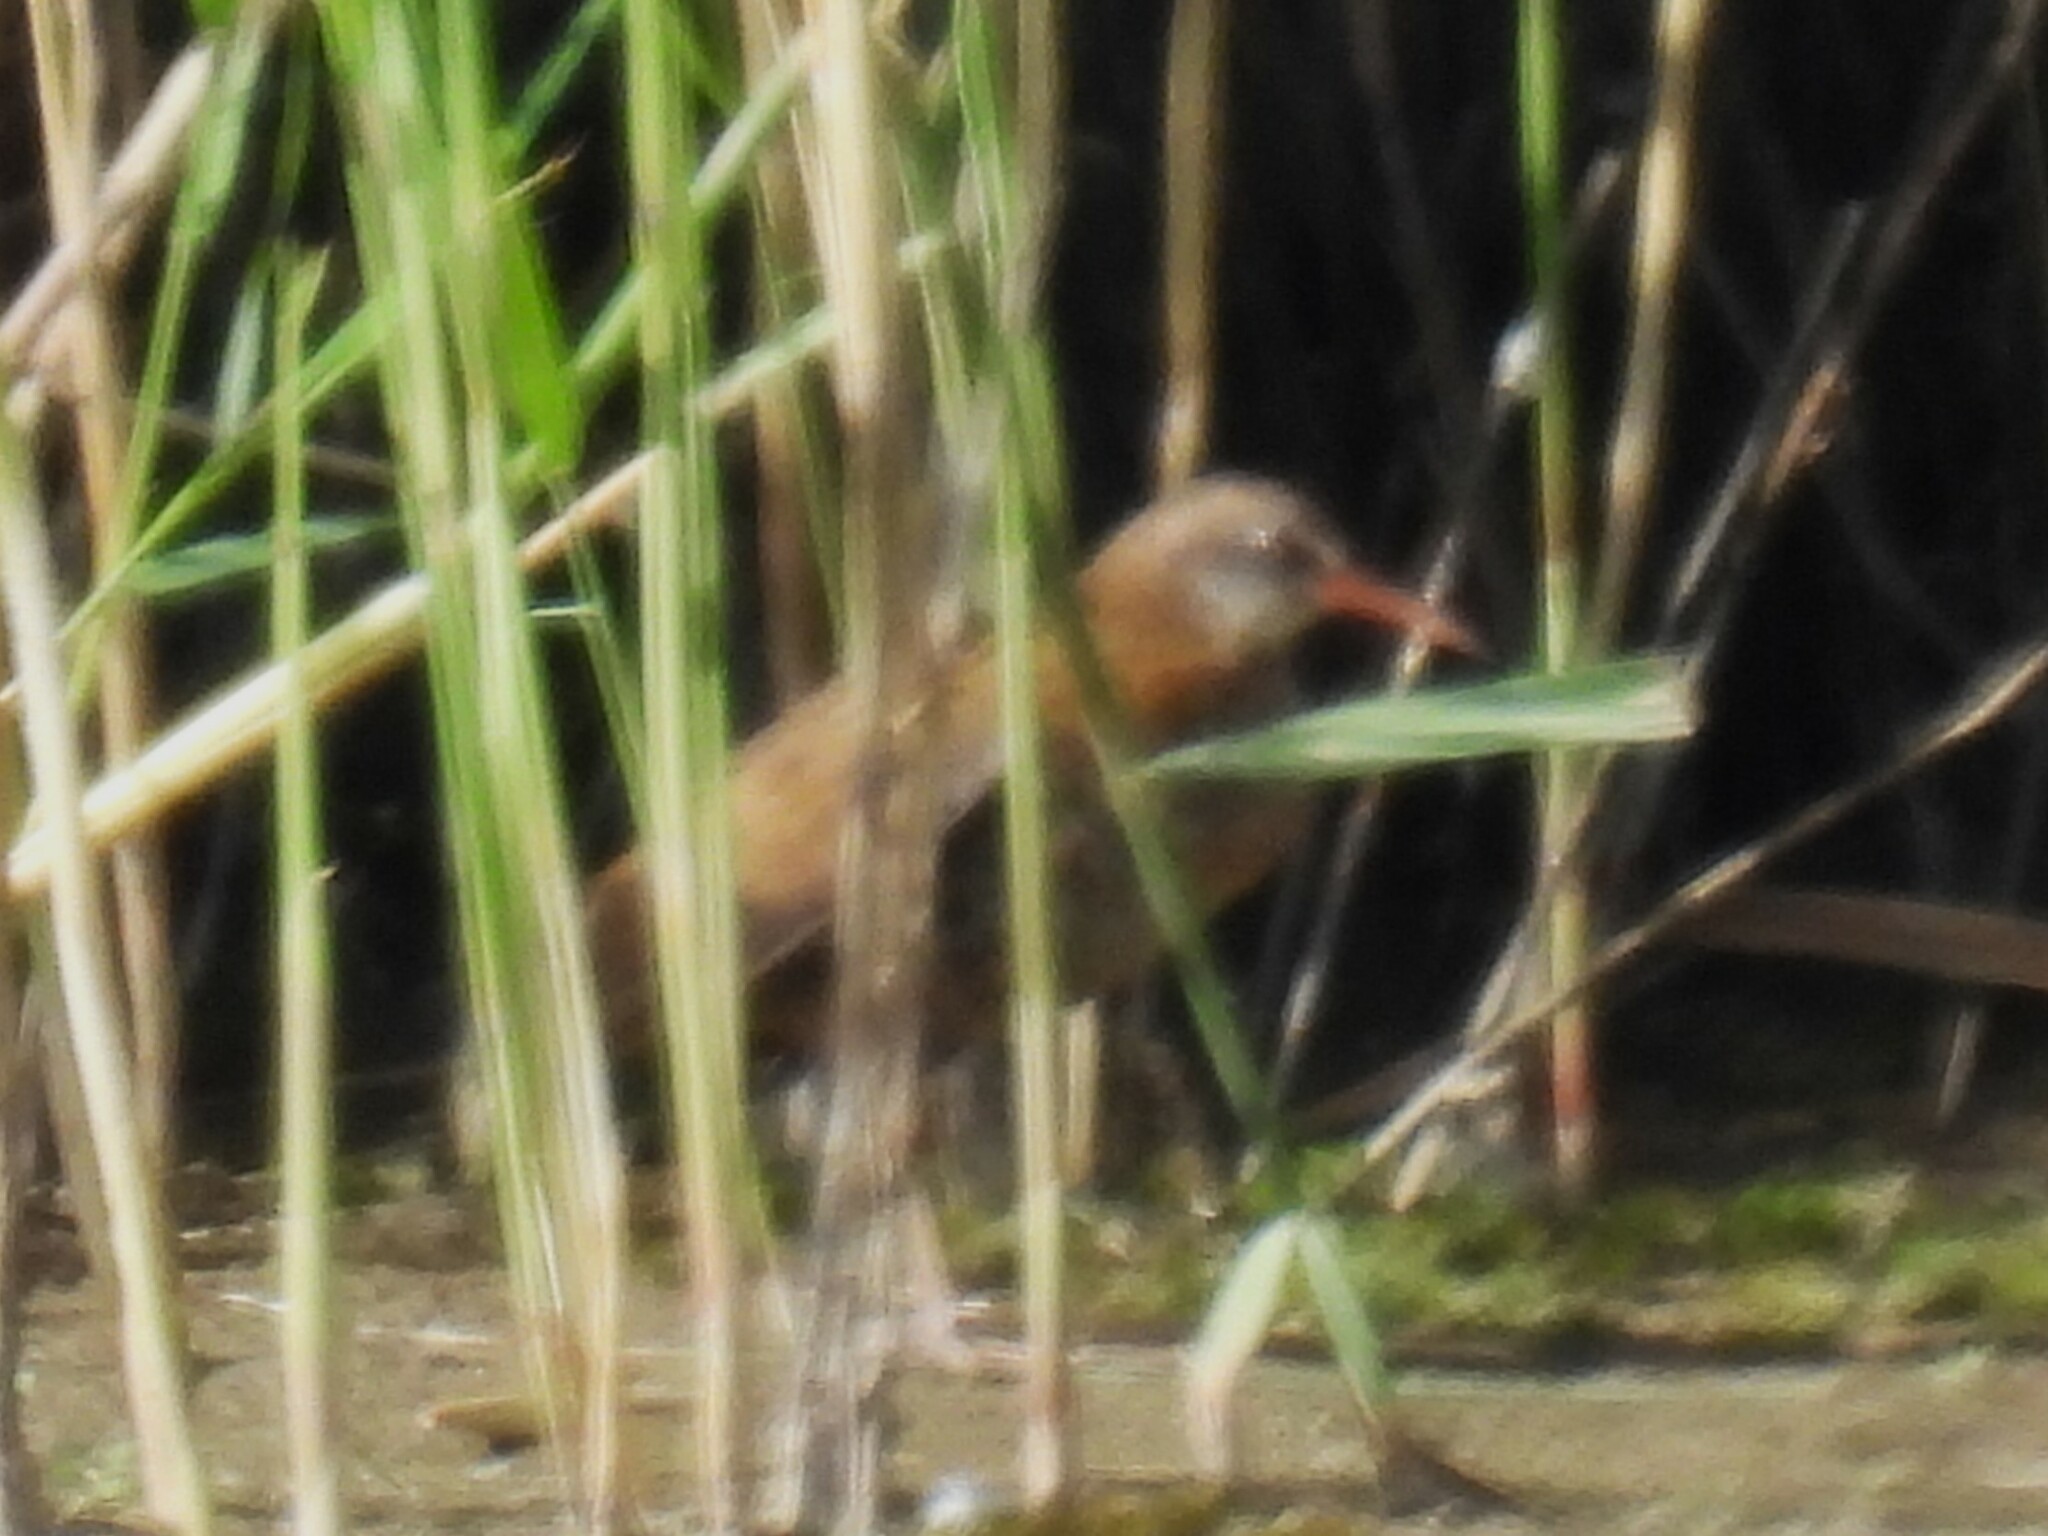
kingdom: Animalia
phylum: Chordata
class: Aves
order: Gruiformes
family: Rallidae
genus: Rallus
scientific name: Rallus aquaticus
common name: Water rail
